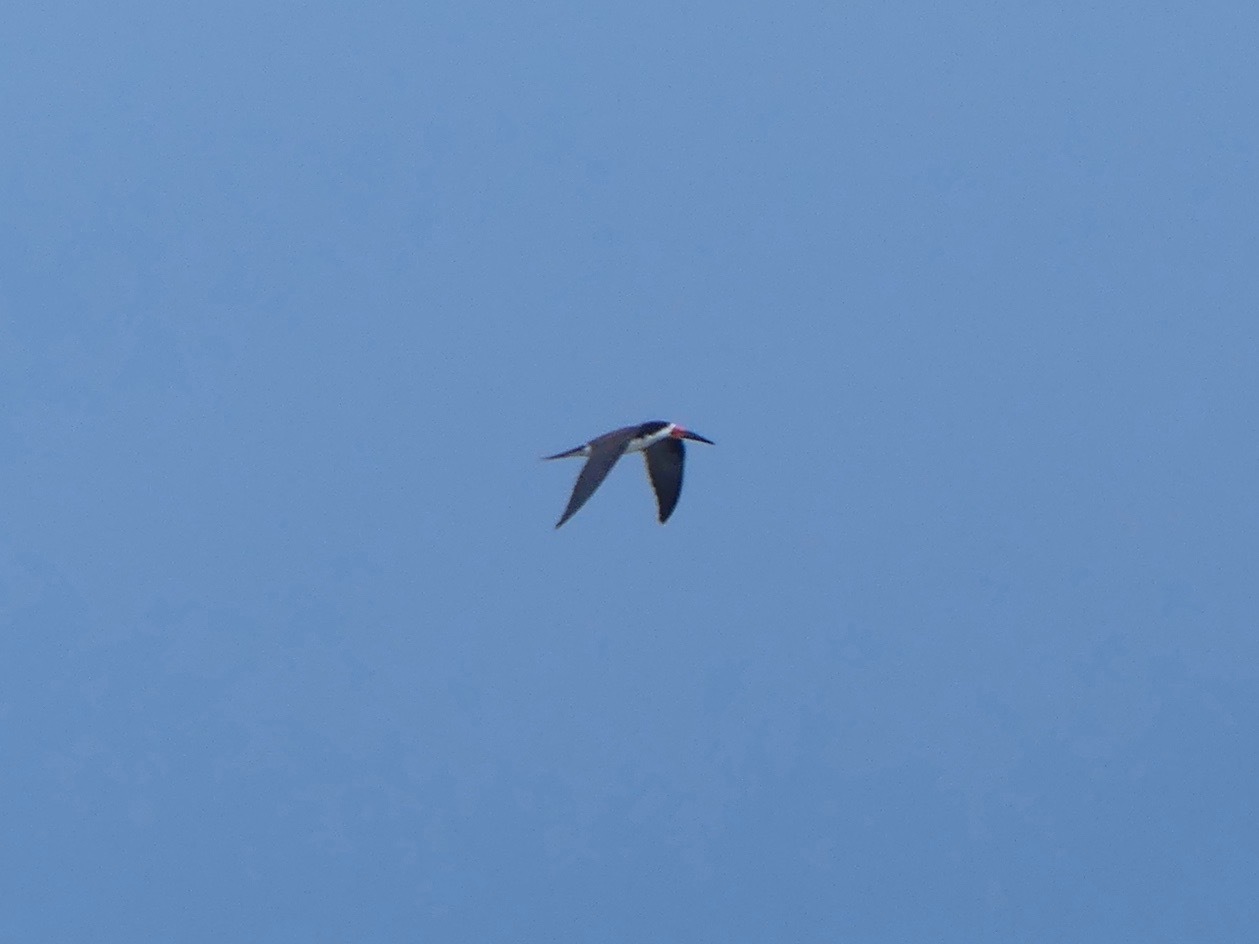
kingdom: Animalia
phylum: Chordata
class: Aves
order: Charadriiformes
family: Laridae
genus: Rynchops
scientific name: Rynchops niger
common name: Black skimmer
